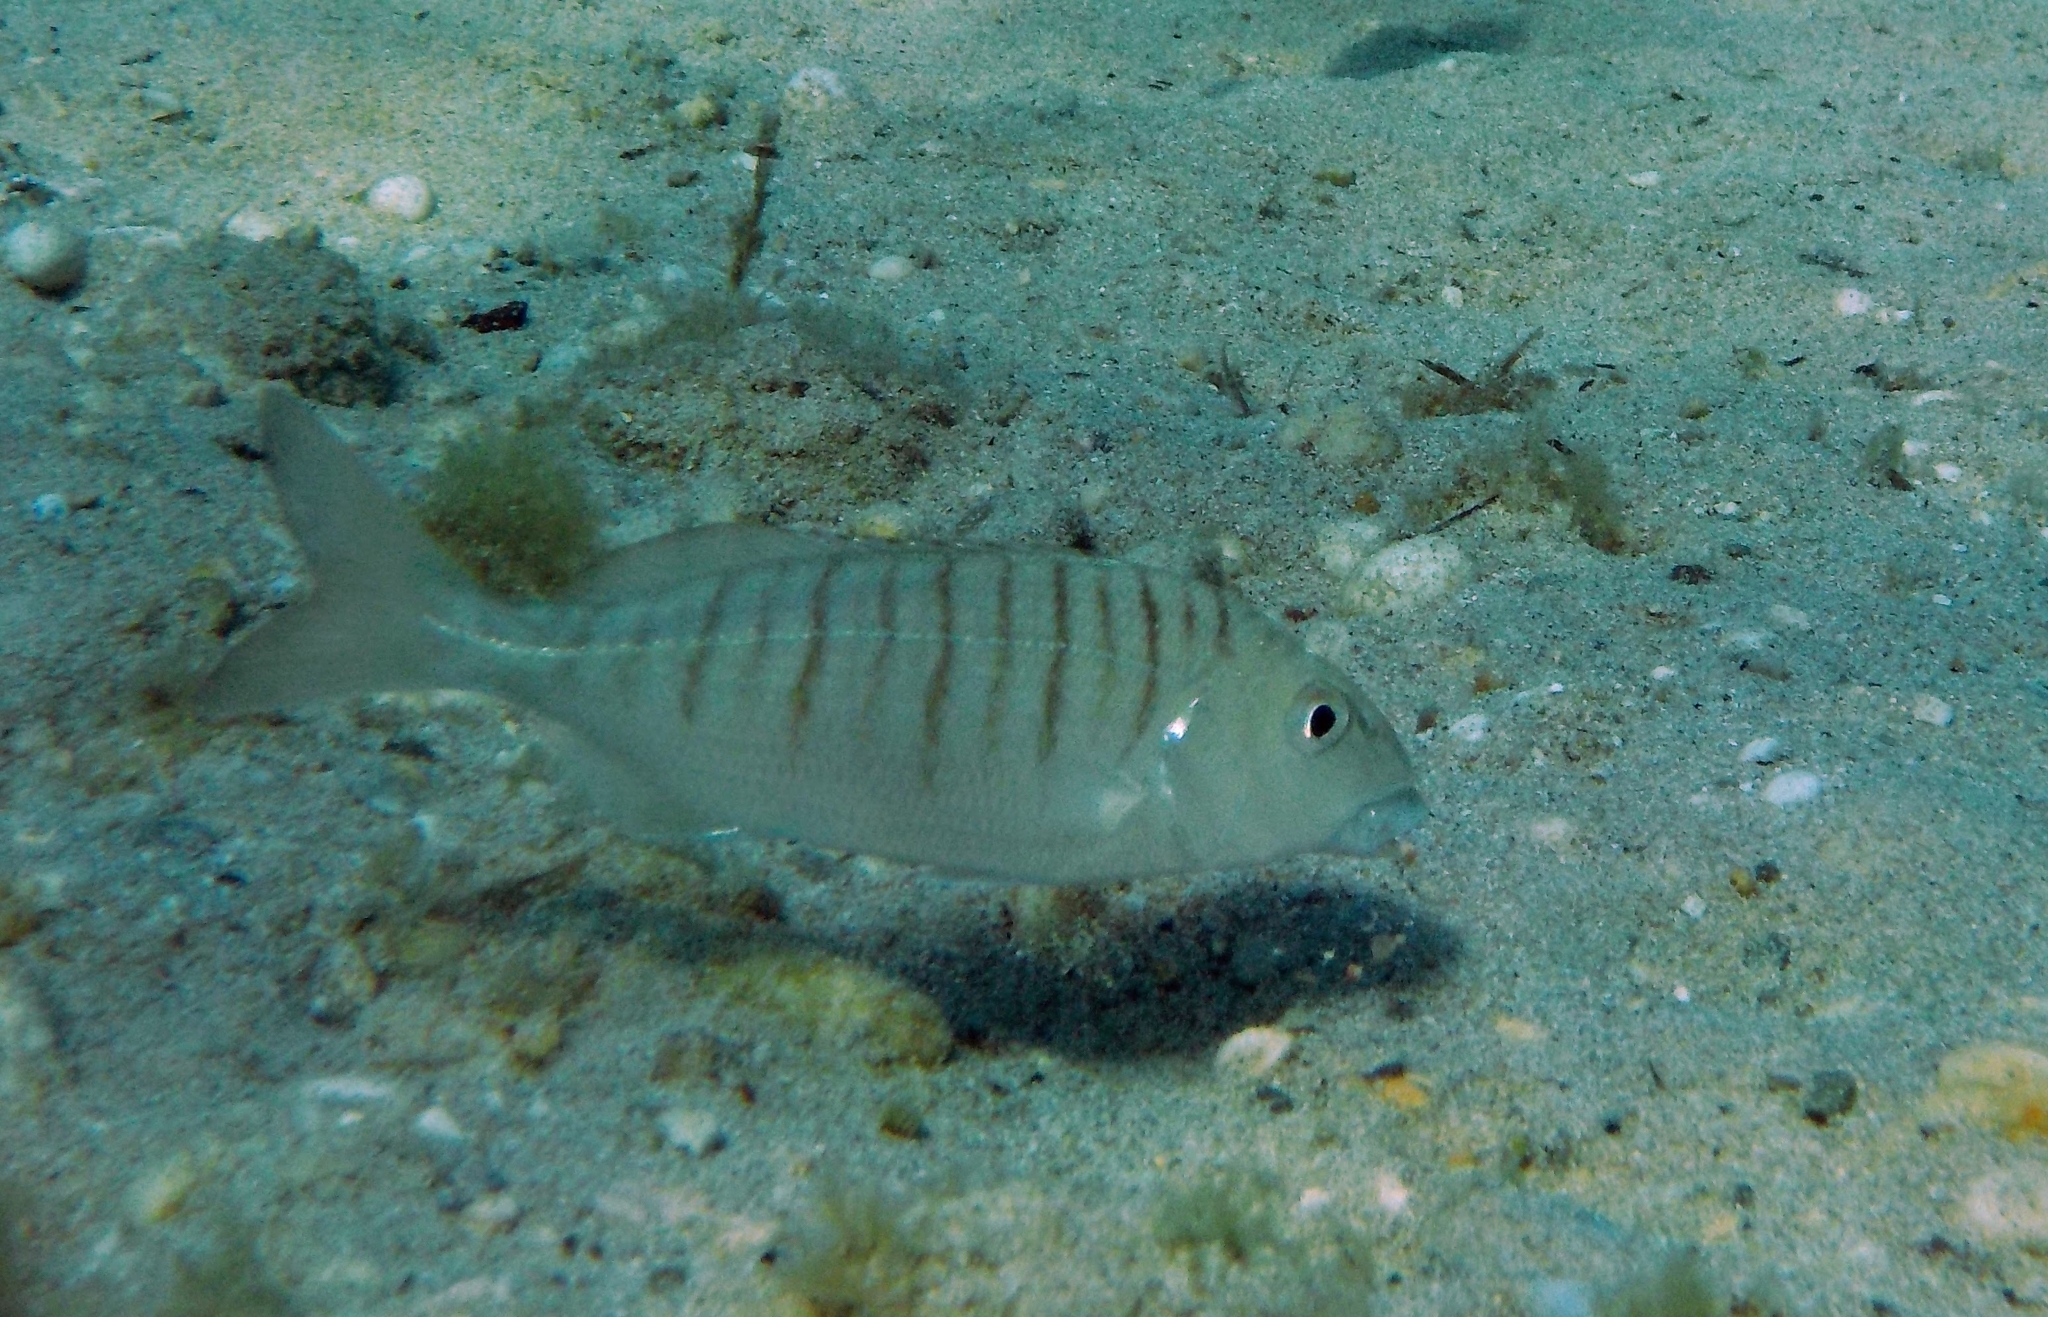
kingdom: Animalia
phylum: Chordata
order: Perciformes
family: Sparidae
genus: Lithognathus
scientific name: Lithognathus mormyrus
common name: Sand steenbras
